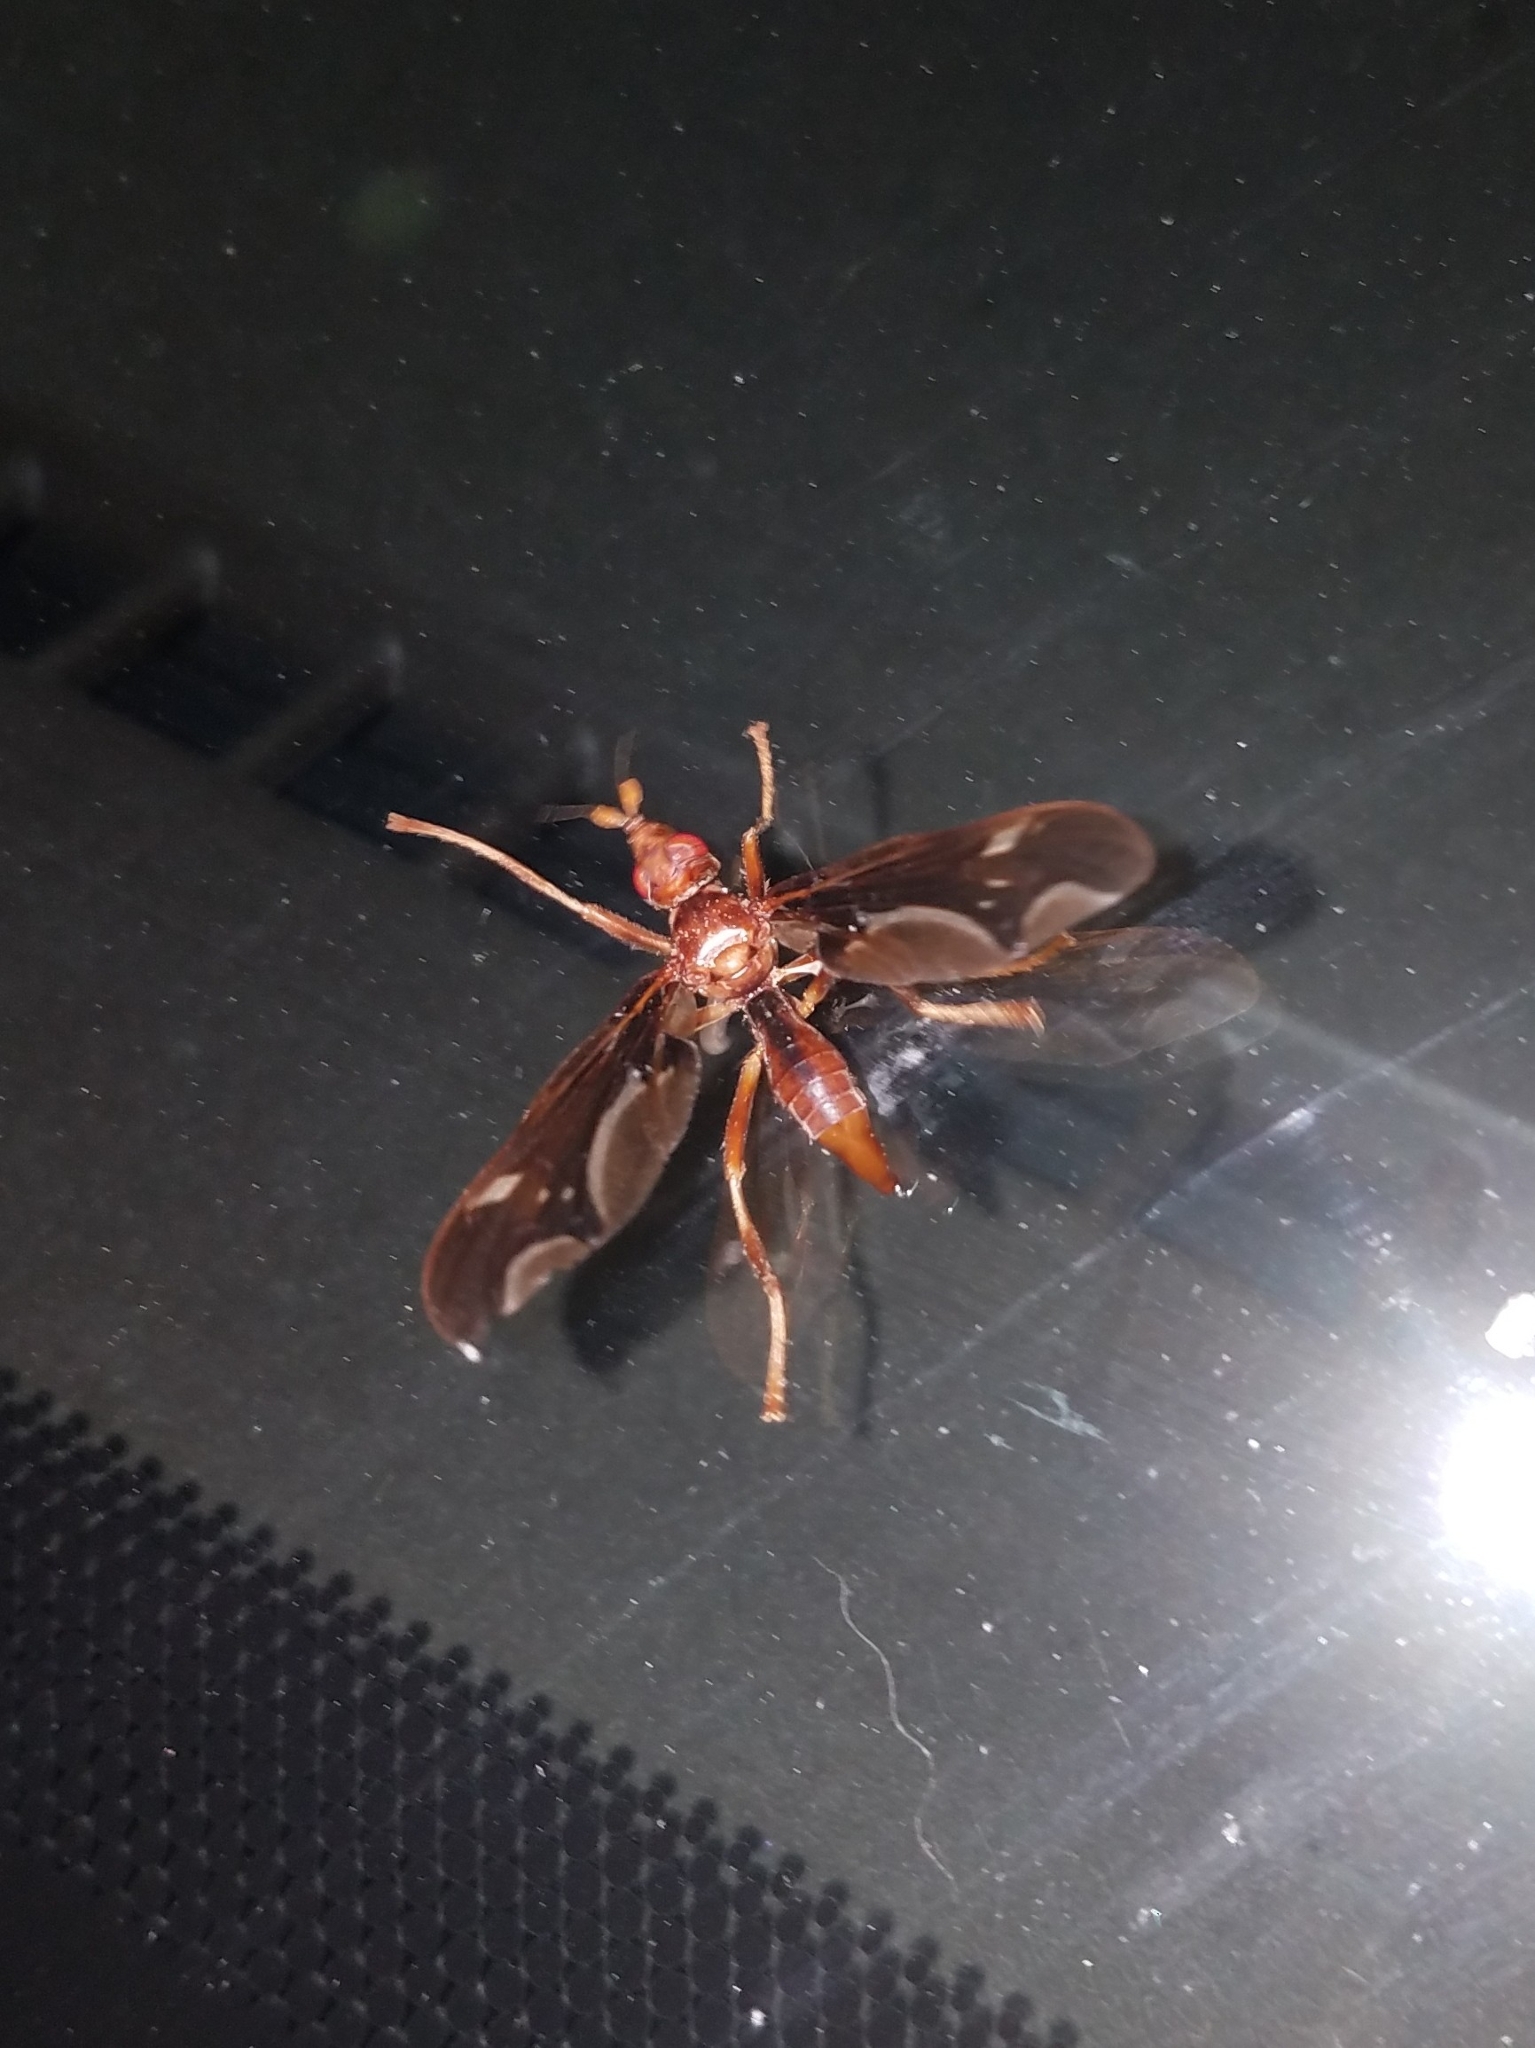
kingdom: Animalia
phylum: Arthropoda
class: Insecta
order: Diptera
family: Pyrgotidae
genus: Pyrgota
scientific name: Pyrgota undata
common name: Waved light fly
